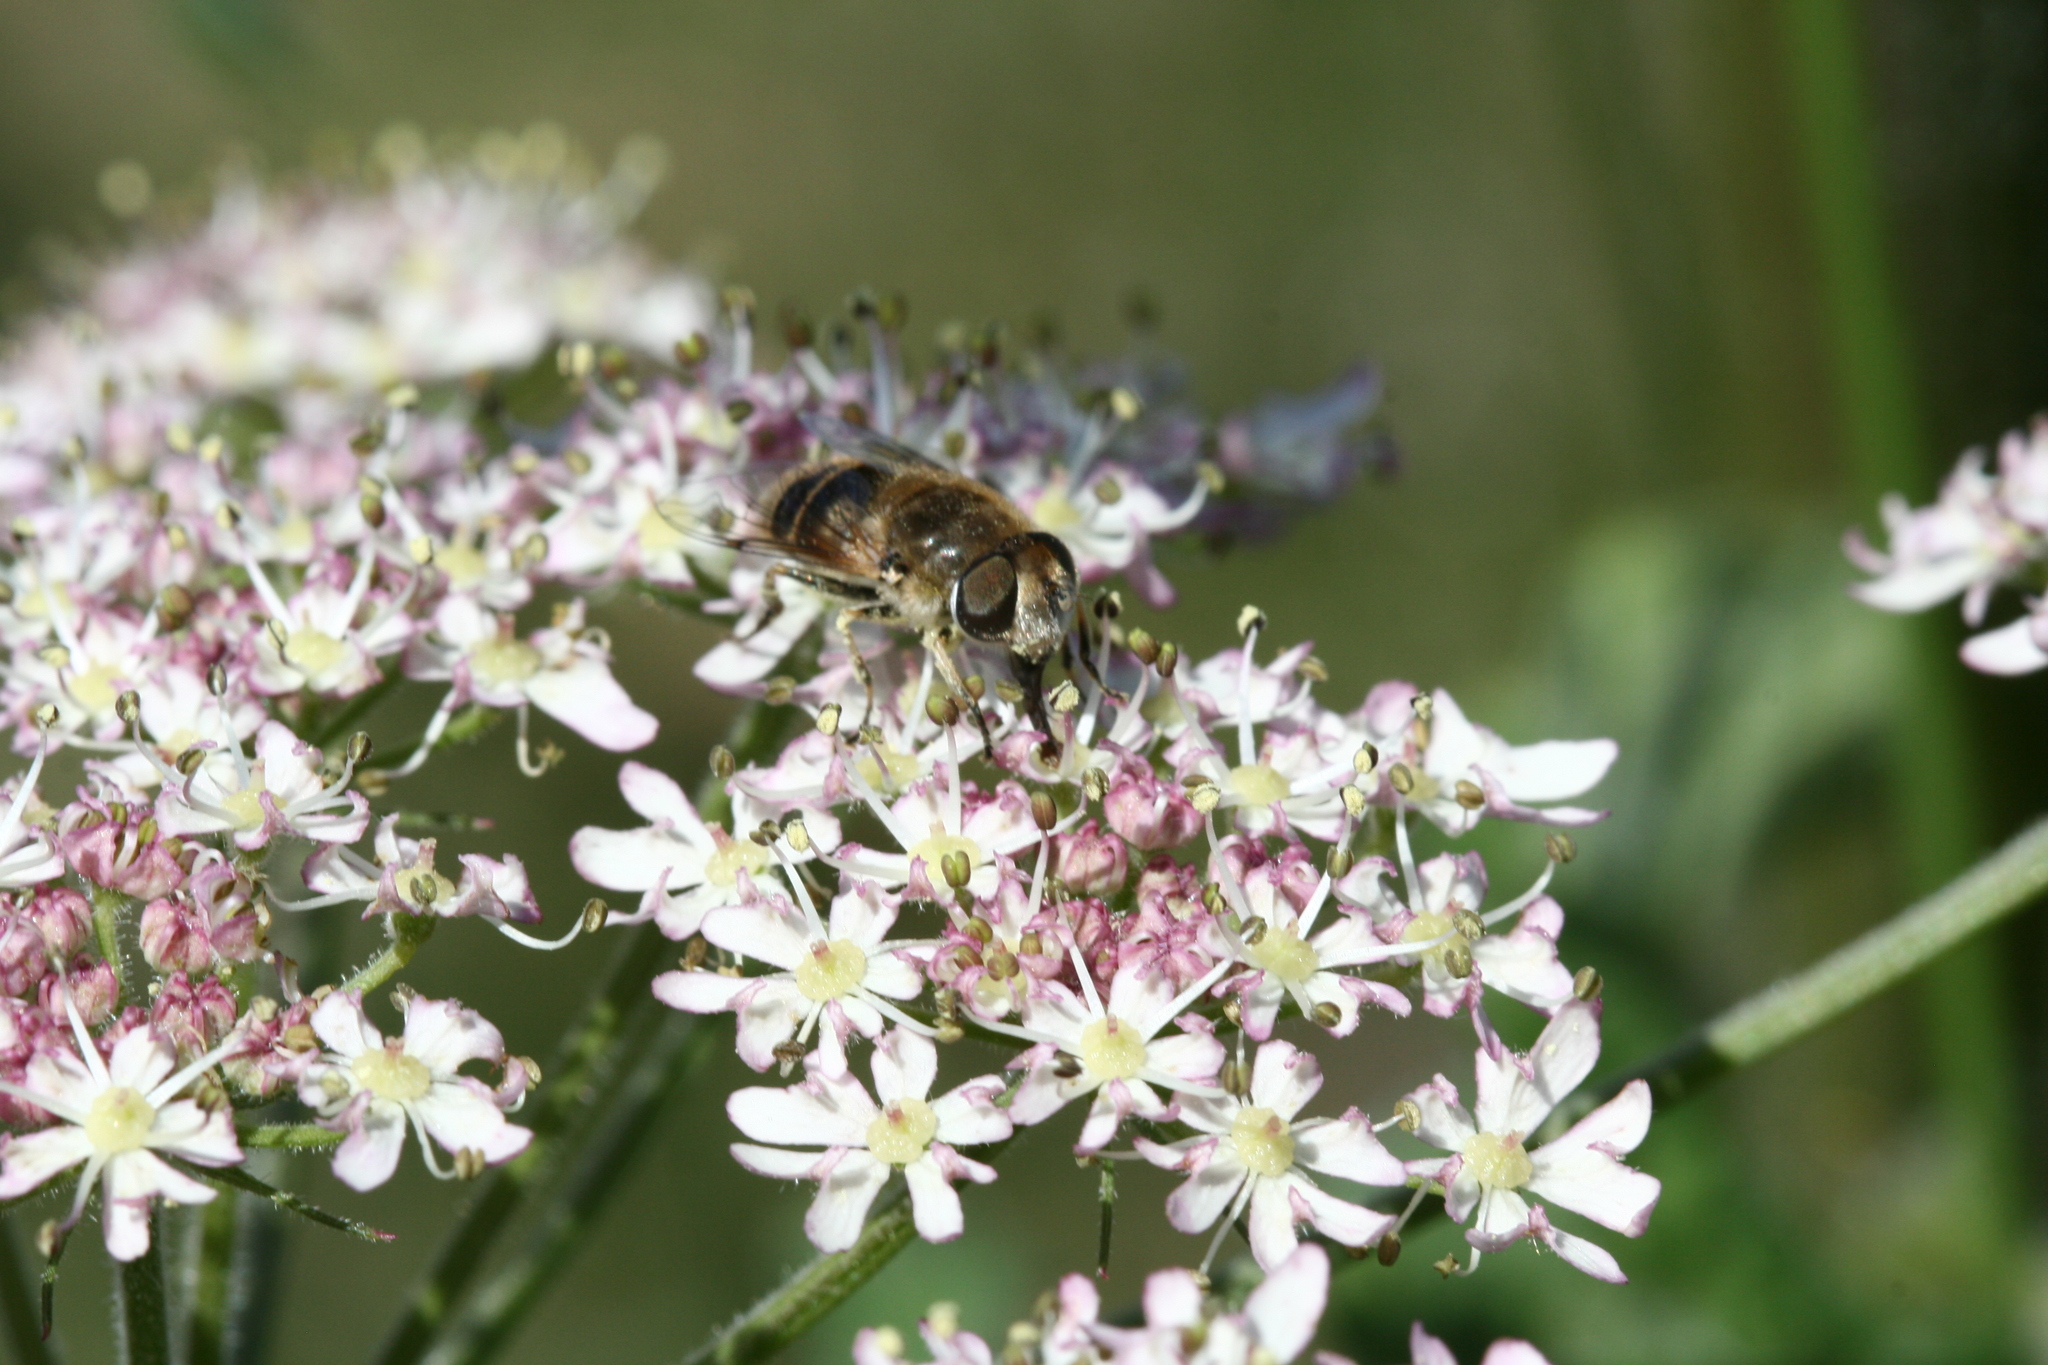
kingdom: Animalia
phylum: Arthropoda
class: Insecta
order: Diptera
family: Syrphidae
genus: Eristalis
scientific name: Eristalis arbustorum
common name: Hover fly
